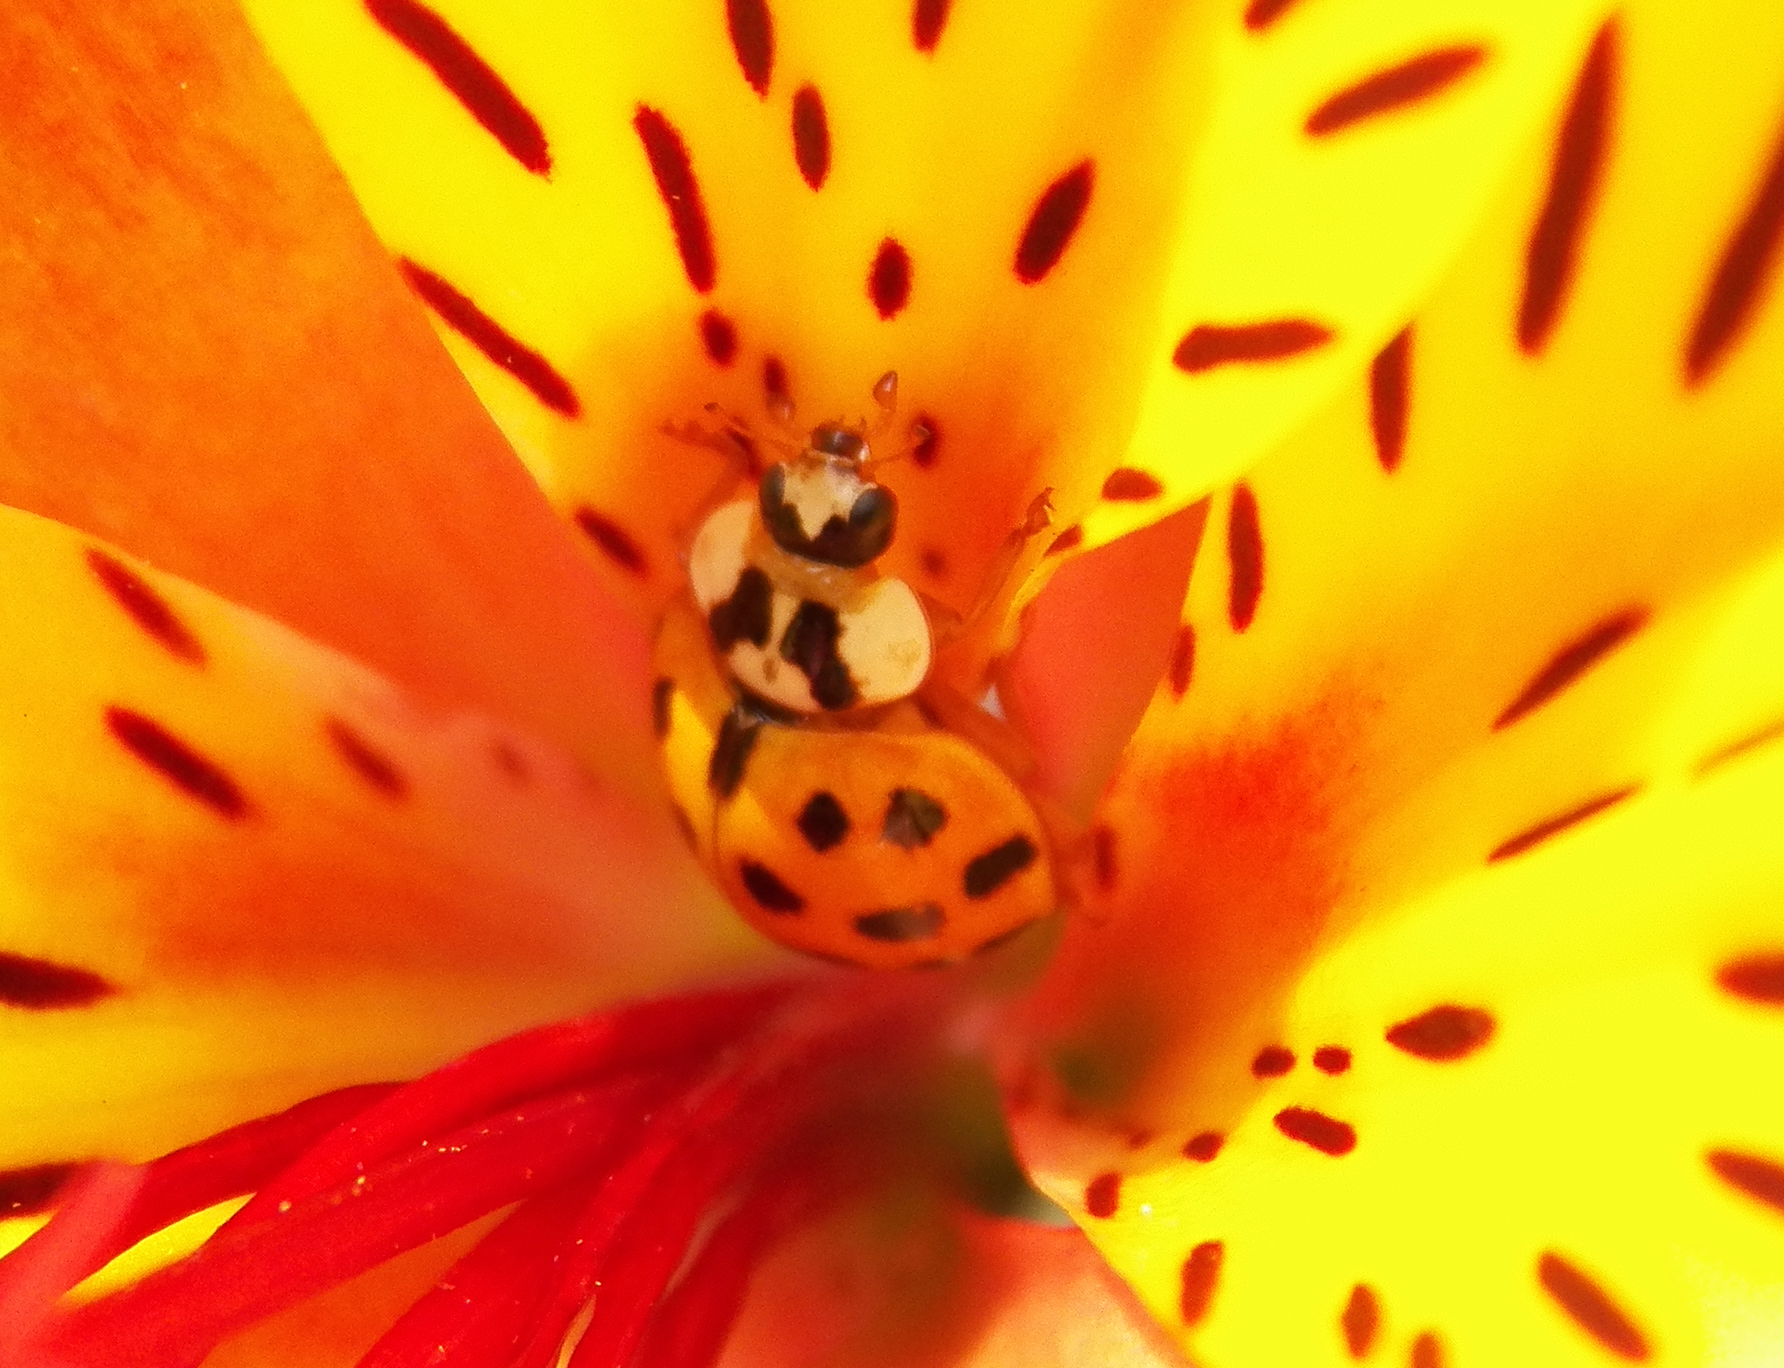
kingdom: Animalia
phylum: Arthropoda
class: Insecta
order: Coleoptera
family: Coccinellidae
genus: Harmonia
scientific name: Harmonia axyridis
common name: Harlequin ladybird
